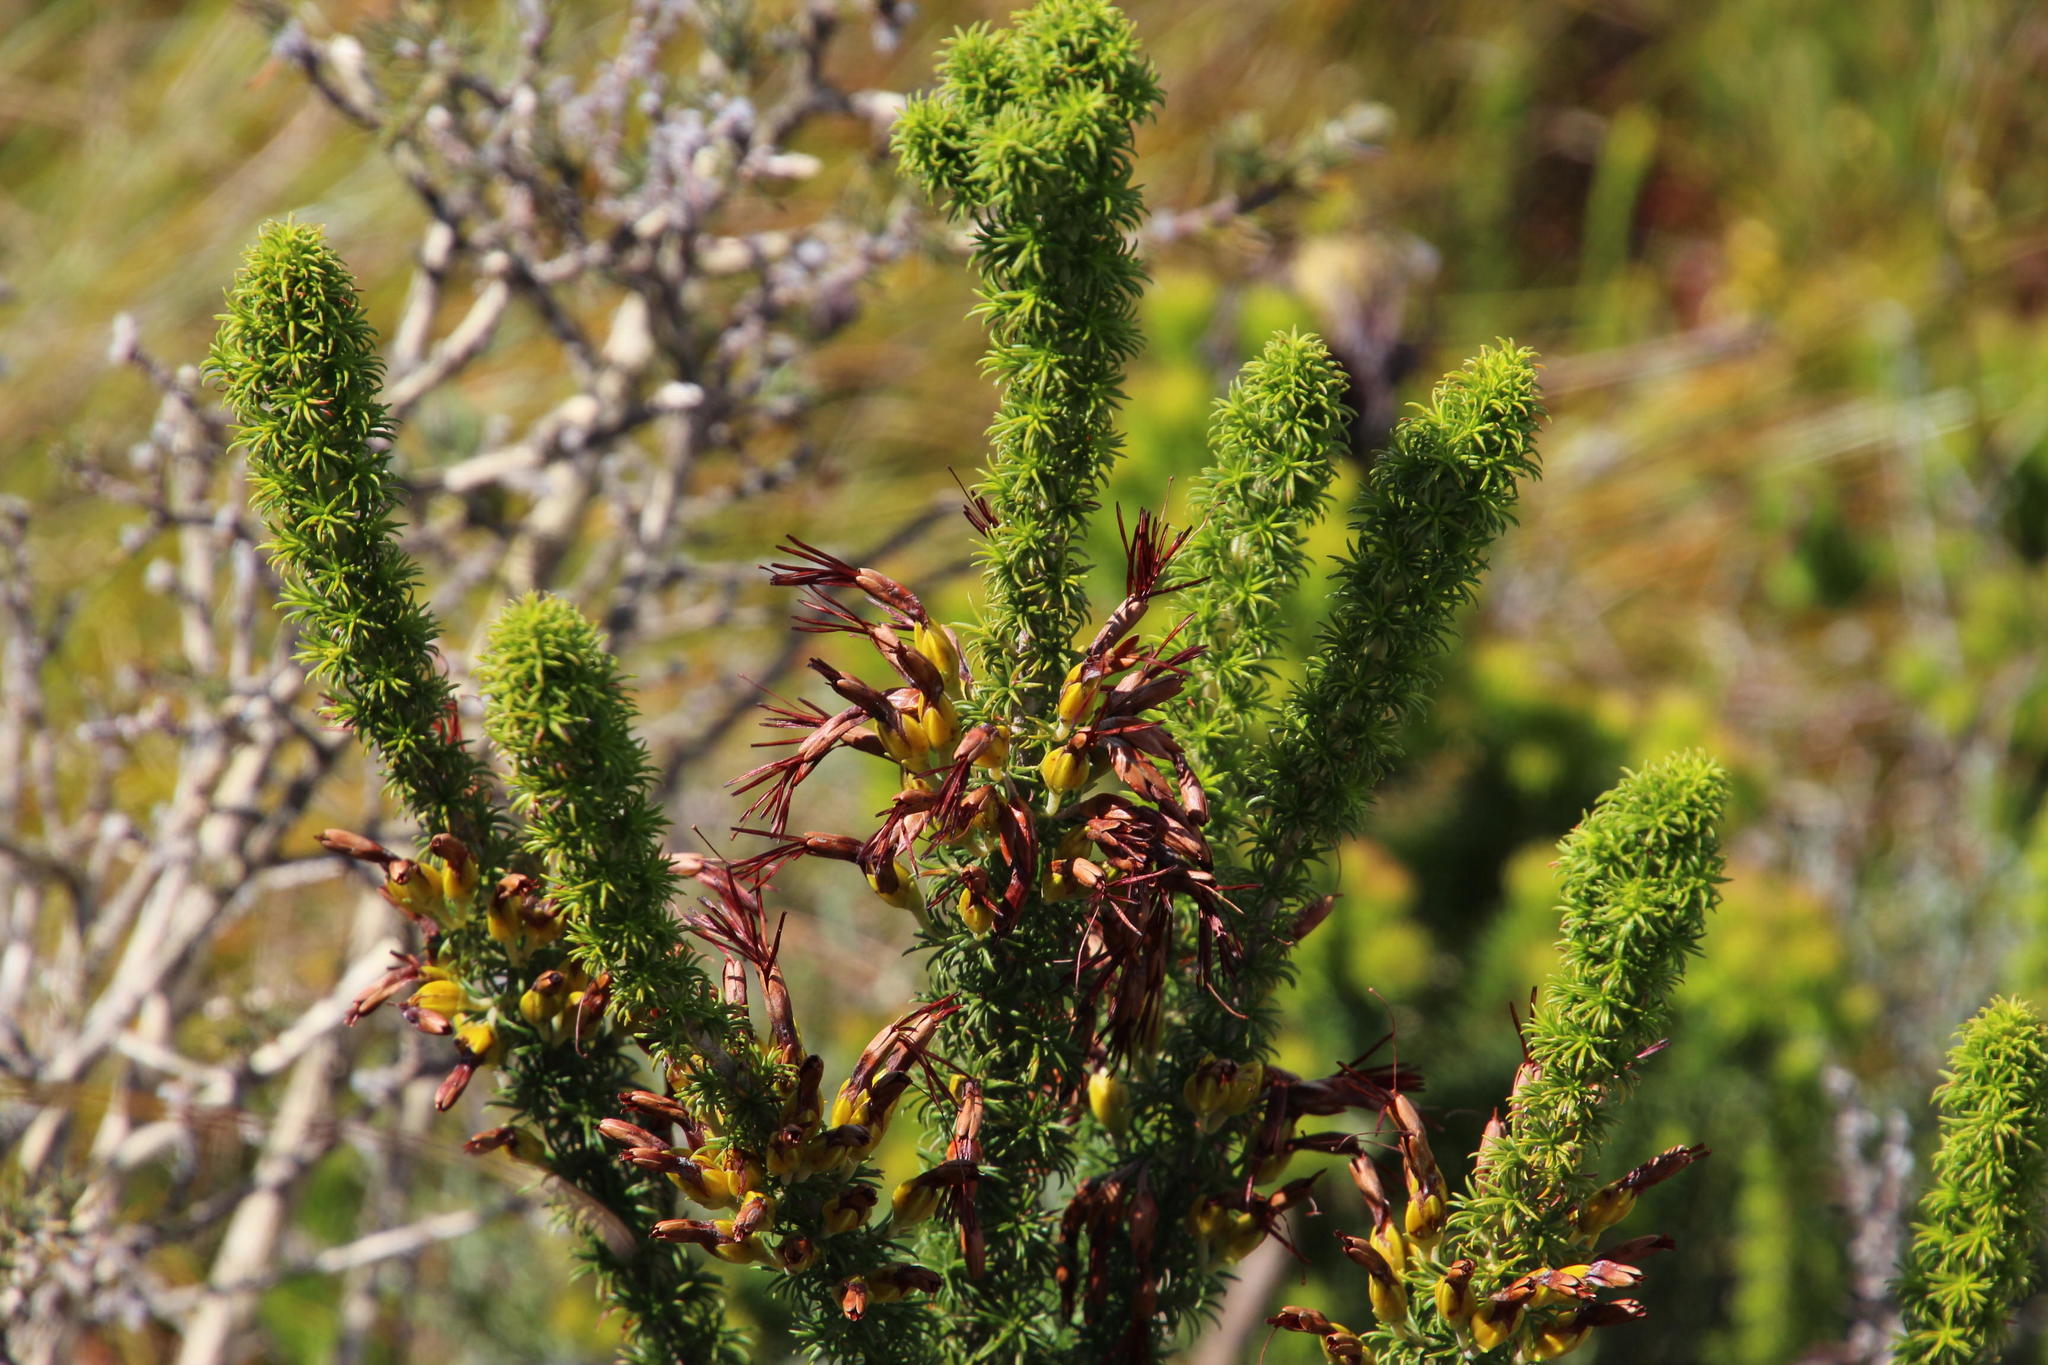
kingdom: Plantae
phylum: Tracheophyta
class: Magnoliopsida
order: Ericales
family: Ericaceae
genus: Erica
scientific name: Erica coccinea
